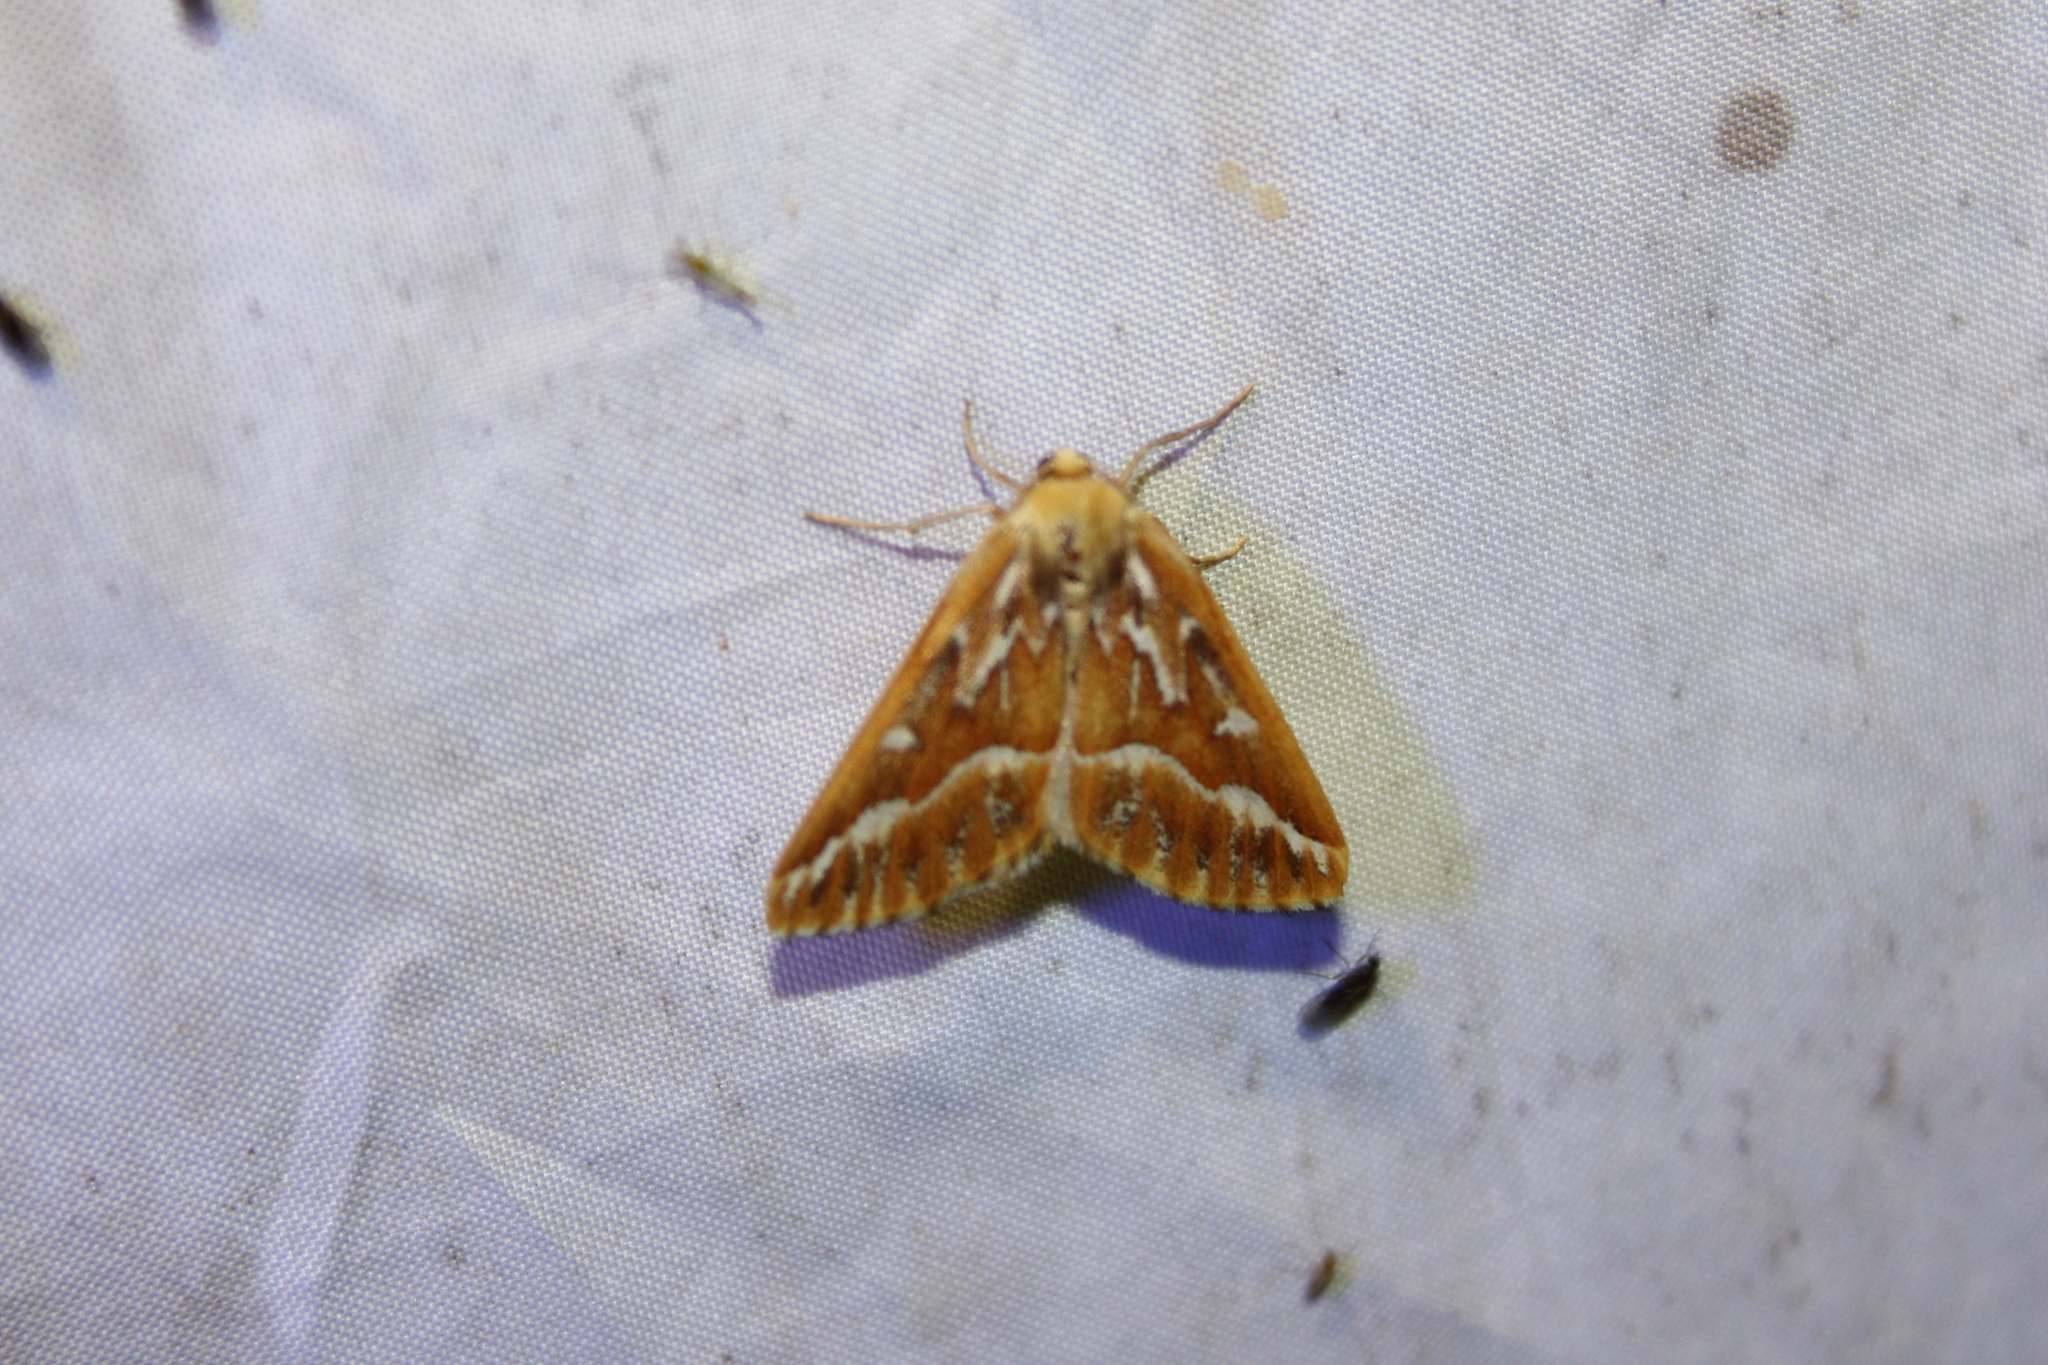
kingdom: Animalia
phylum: Arthropoda
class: Insecta
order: Lepidoptera
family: Geometridae
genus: Caripeta
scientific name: Caripeta piniata
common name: Northern pine looper moth
